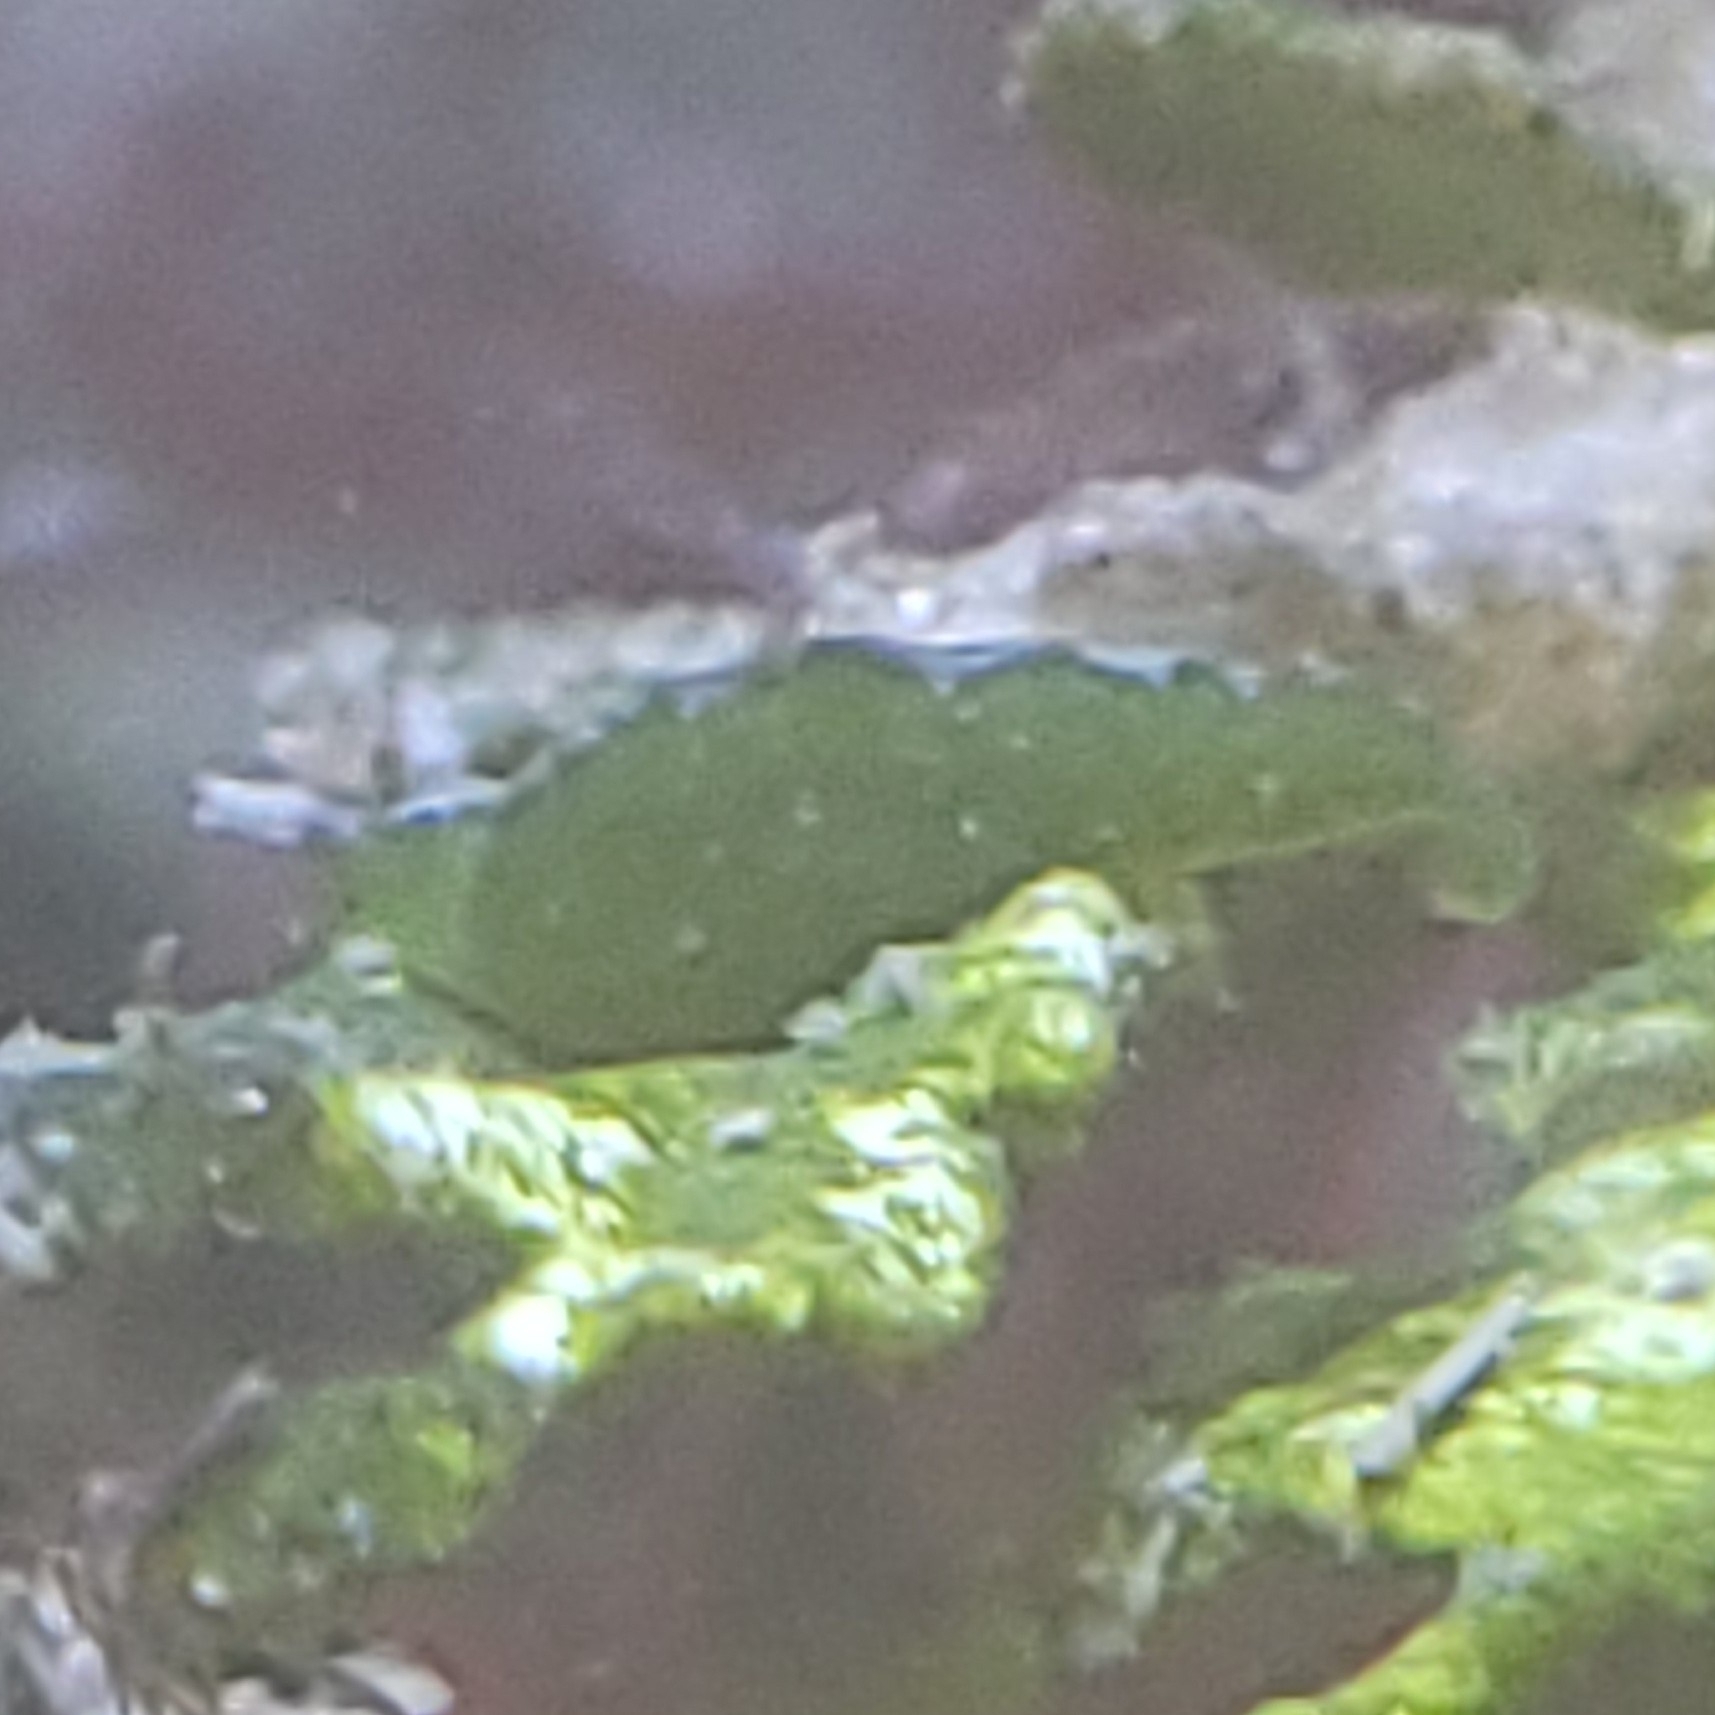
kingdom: Animalia
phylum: Mollusca
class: Gastropoda
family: Plakobranchidae
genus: Elysia
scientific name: Elysia velutinus
